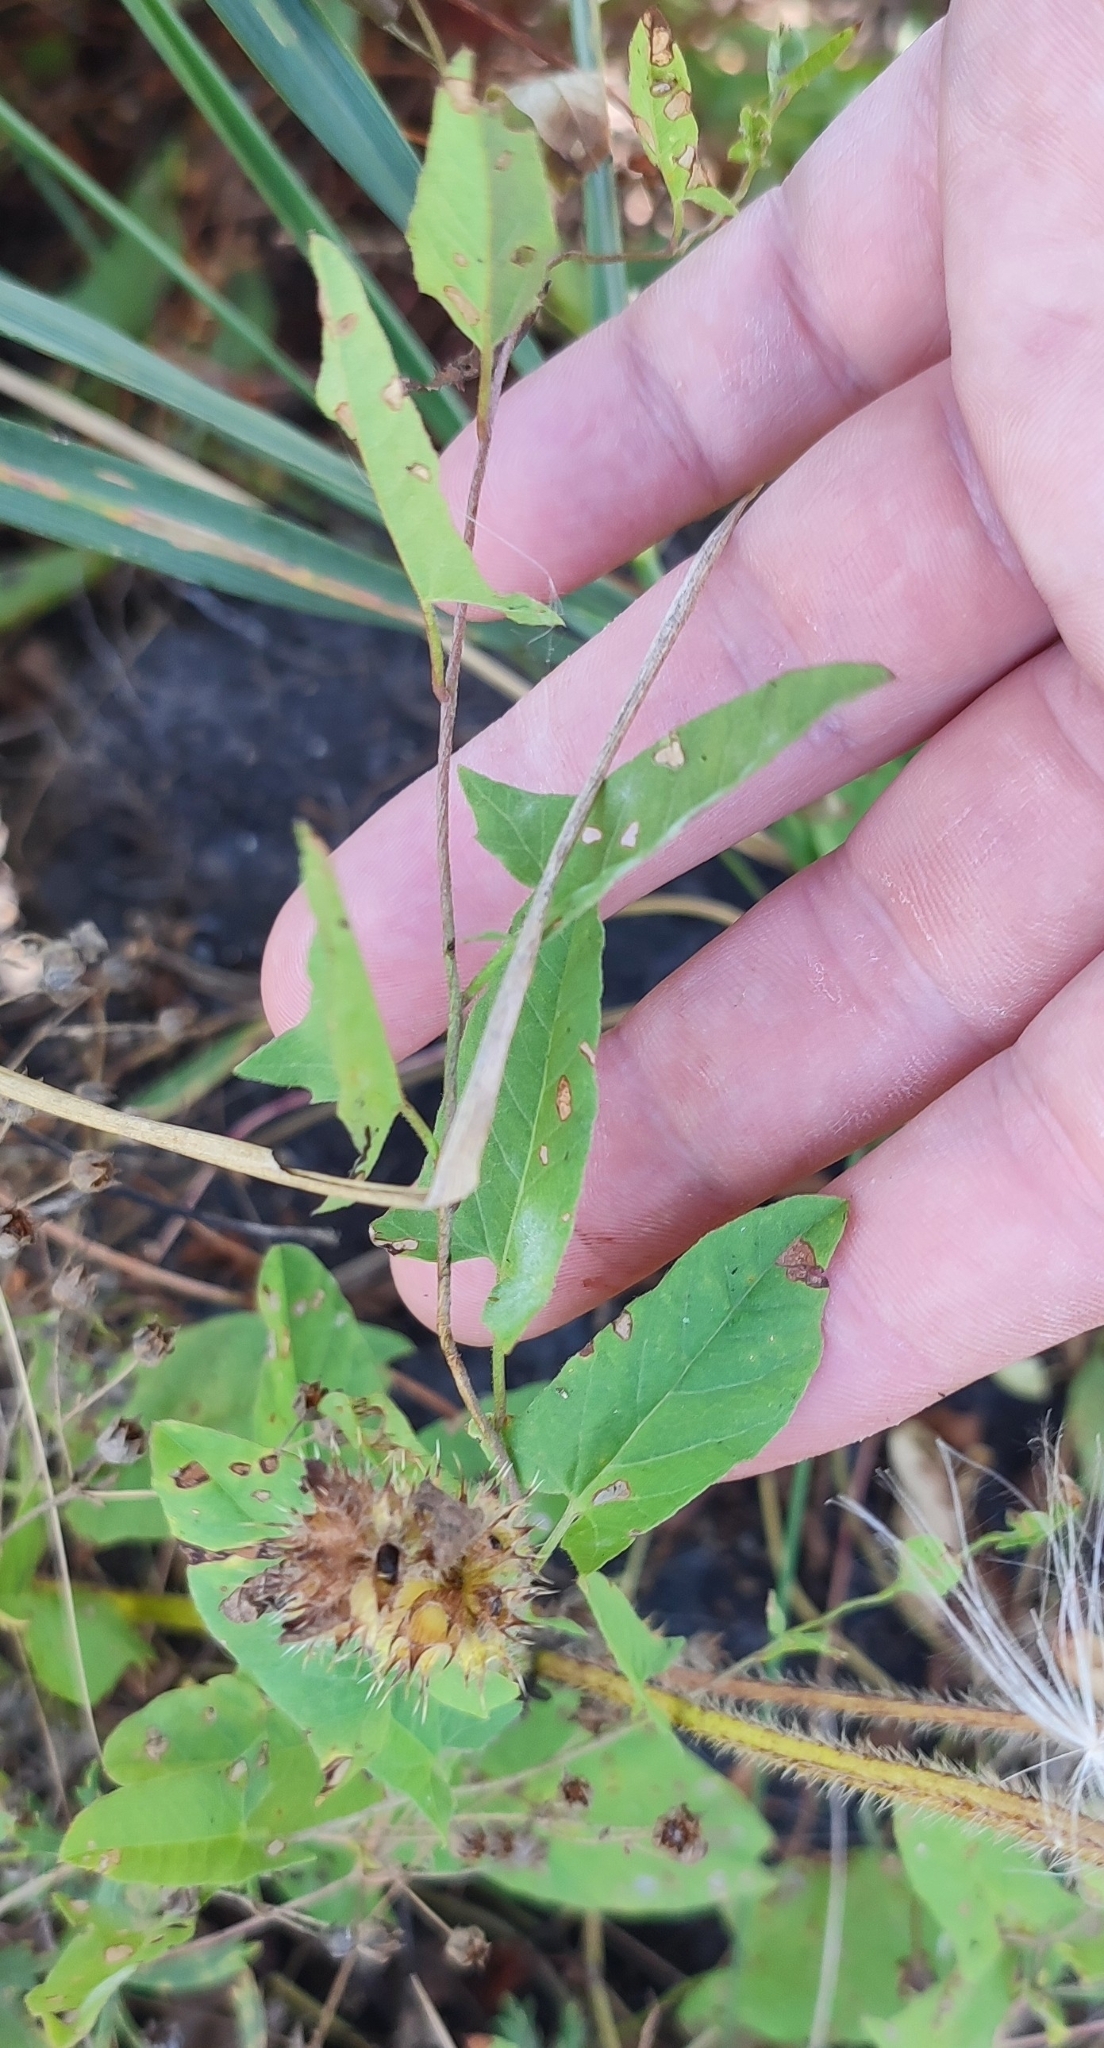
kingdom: Plantae
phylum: Tracheophyta
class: Magnoliopsida
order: Solanales
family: Convolvulaceae
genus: Convolvulus
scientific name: Convolvulus arvensis
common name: Field bindweed
